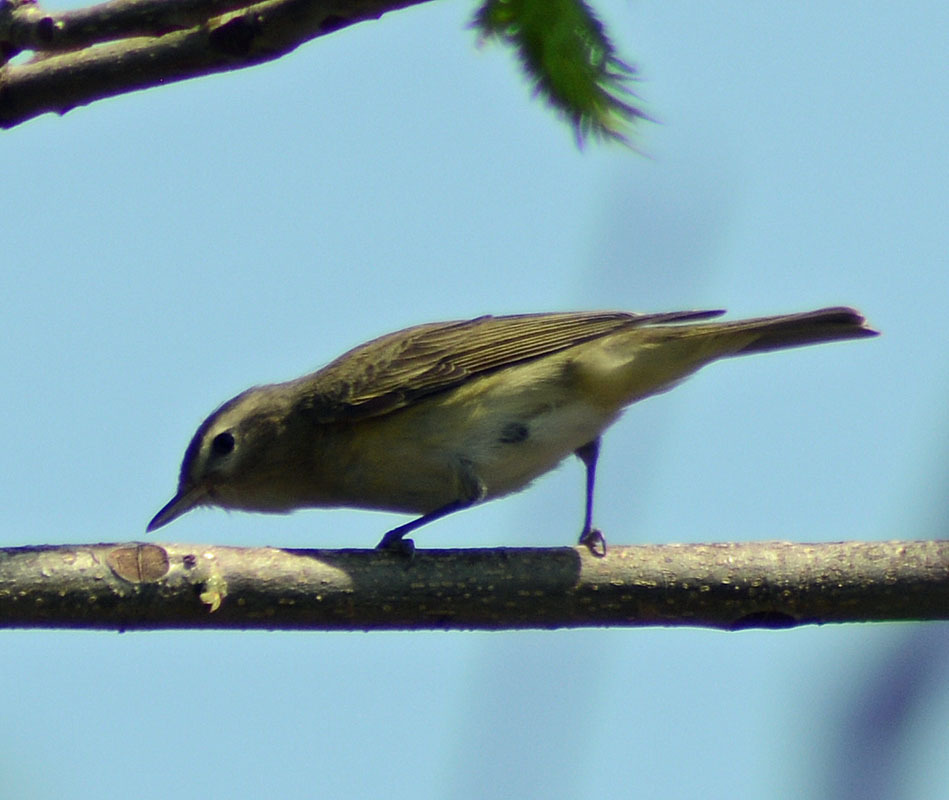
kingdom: Animalia
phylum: Chordata
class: Aves
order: Passeriformes
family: Vireonidae
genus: Vireo
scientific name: Vireo gilvus
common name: Warbling vireo
